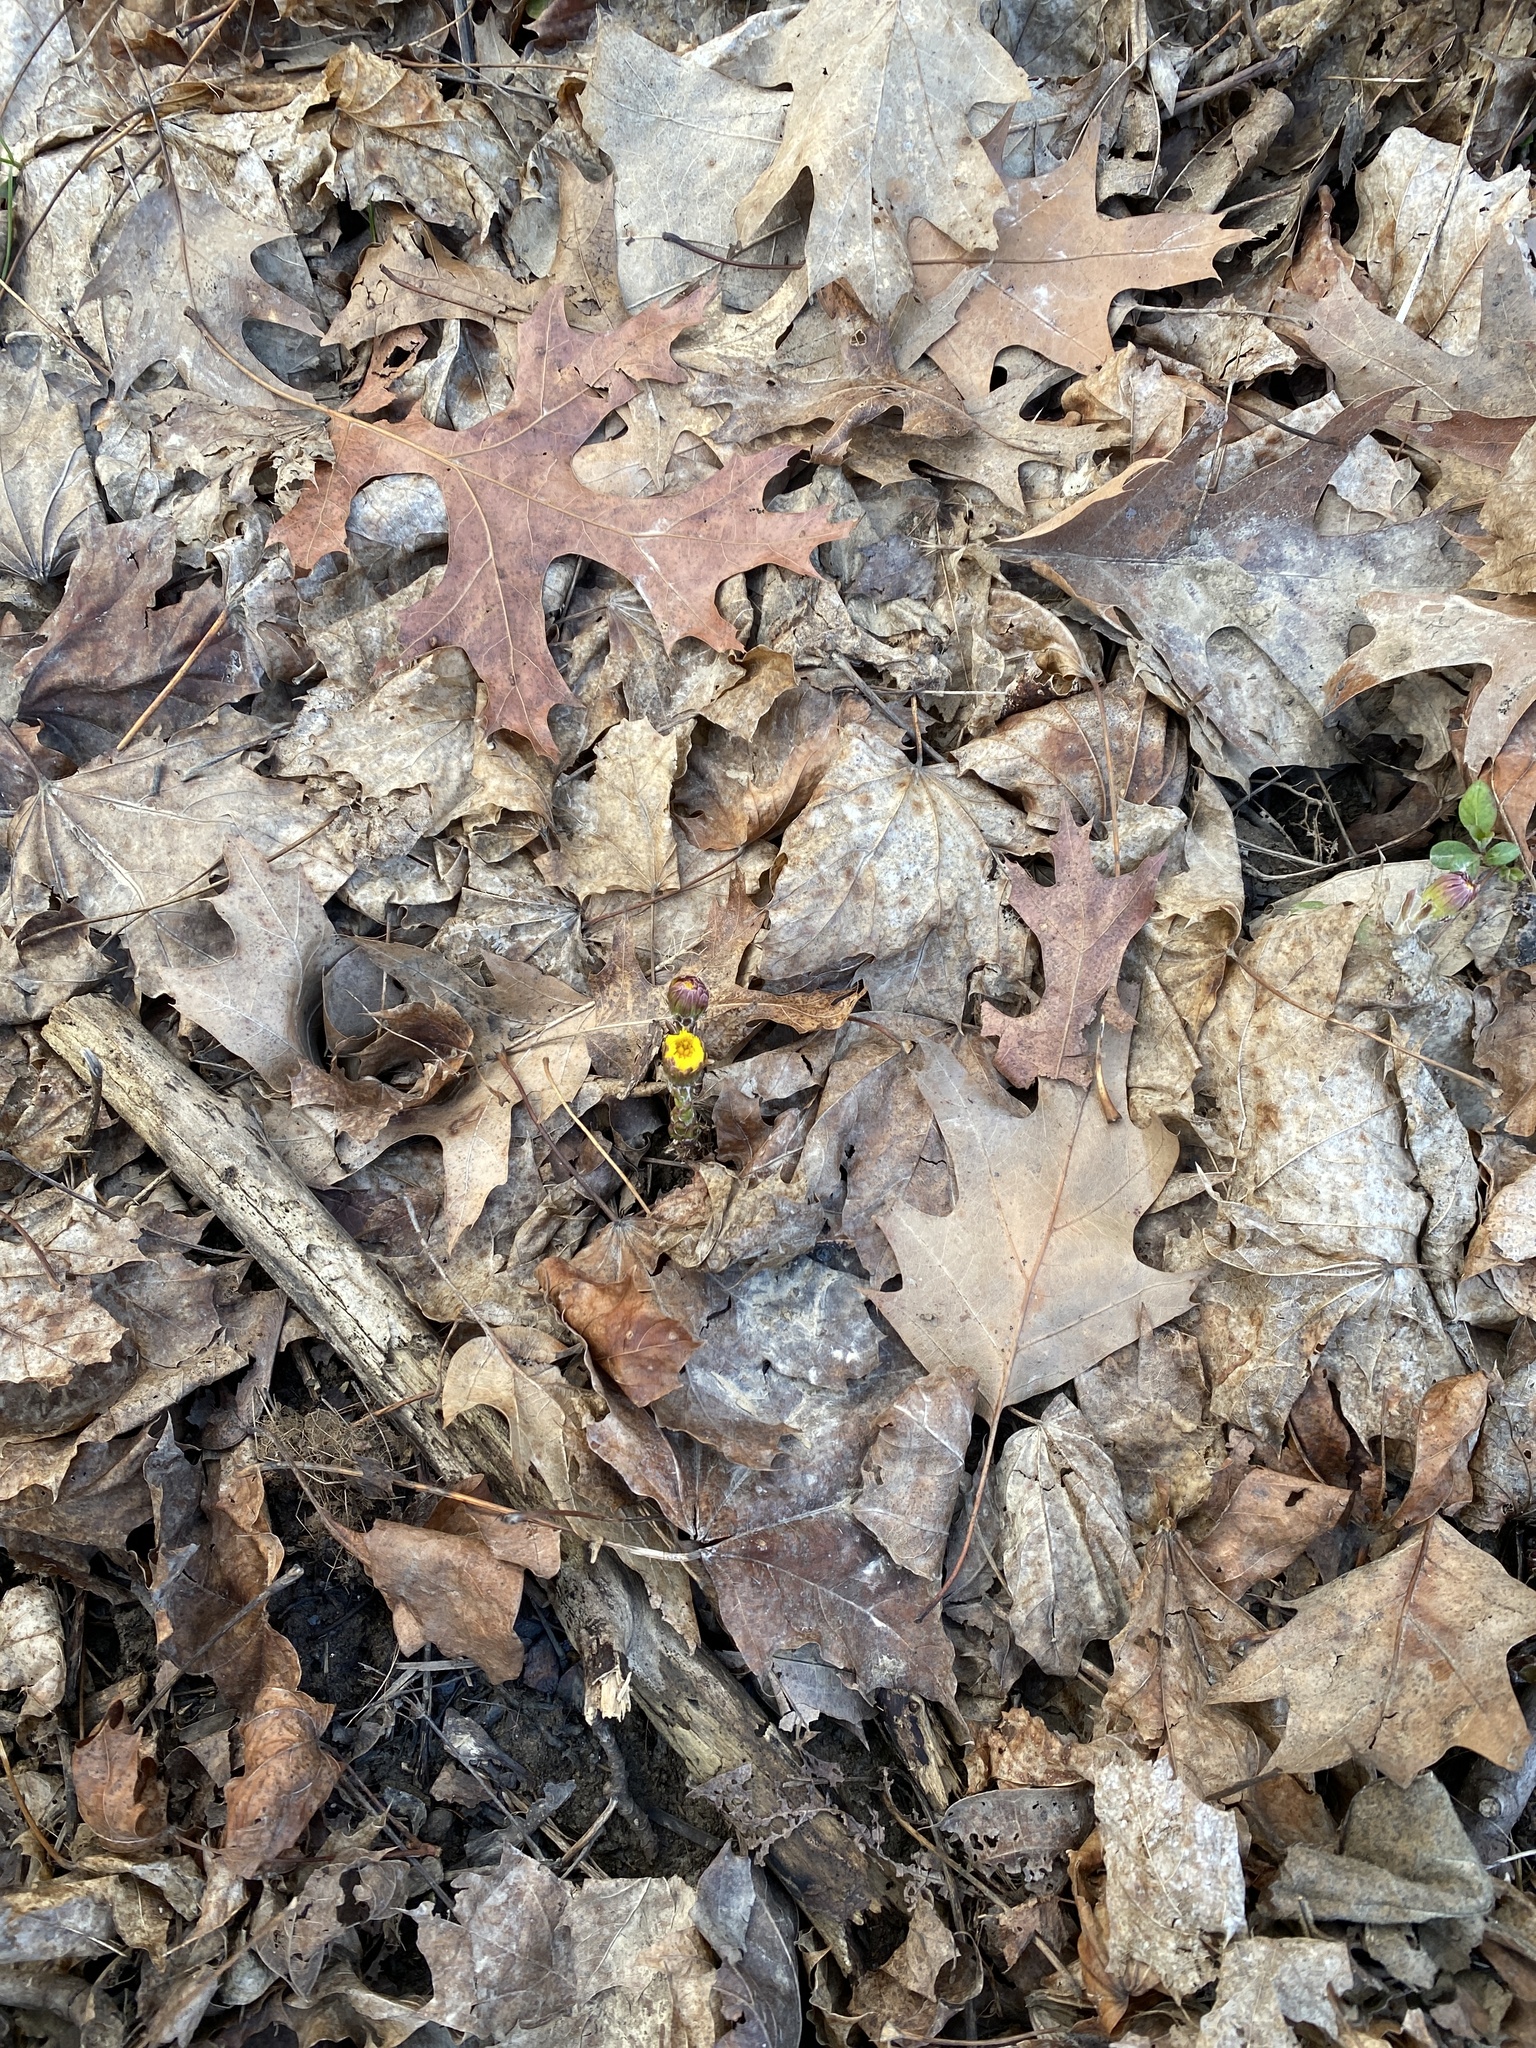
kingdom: Plantae
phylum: Tracheophyta
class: Magnoliopsida
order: Asterales
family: Asteraceae
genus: Tussilago
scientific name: Tussilago farfara
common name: Coltsfoot
